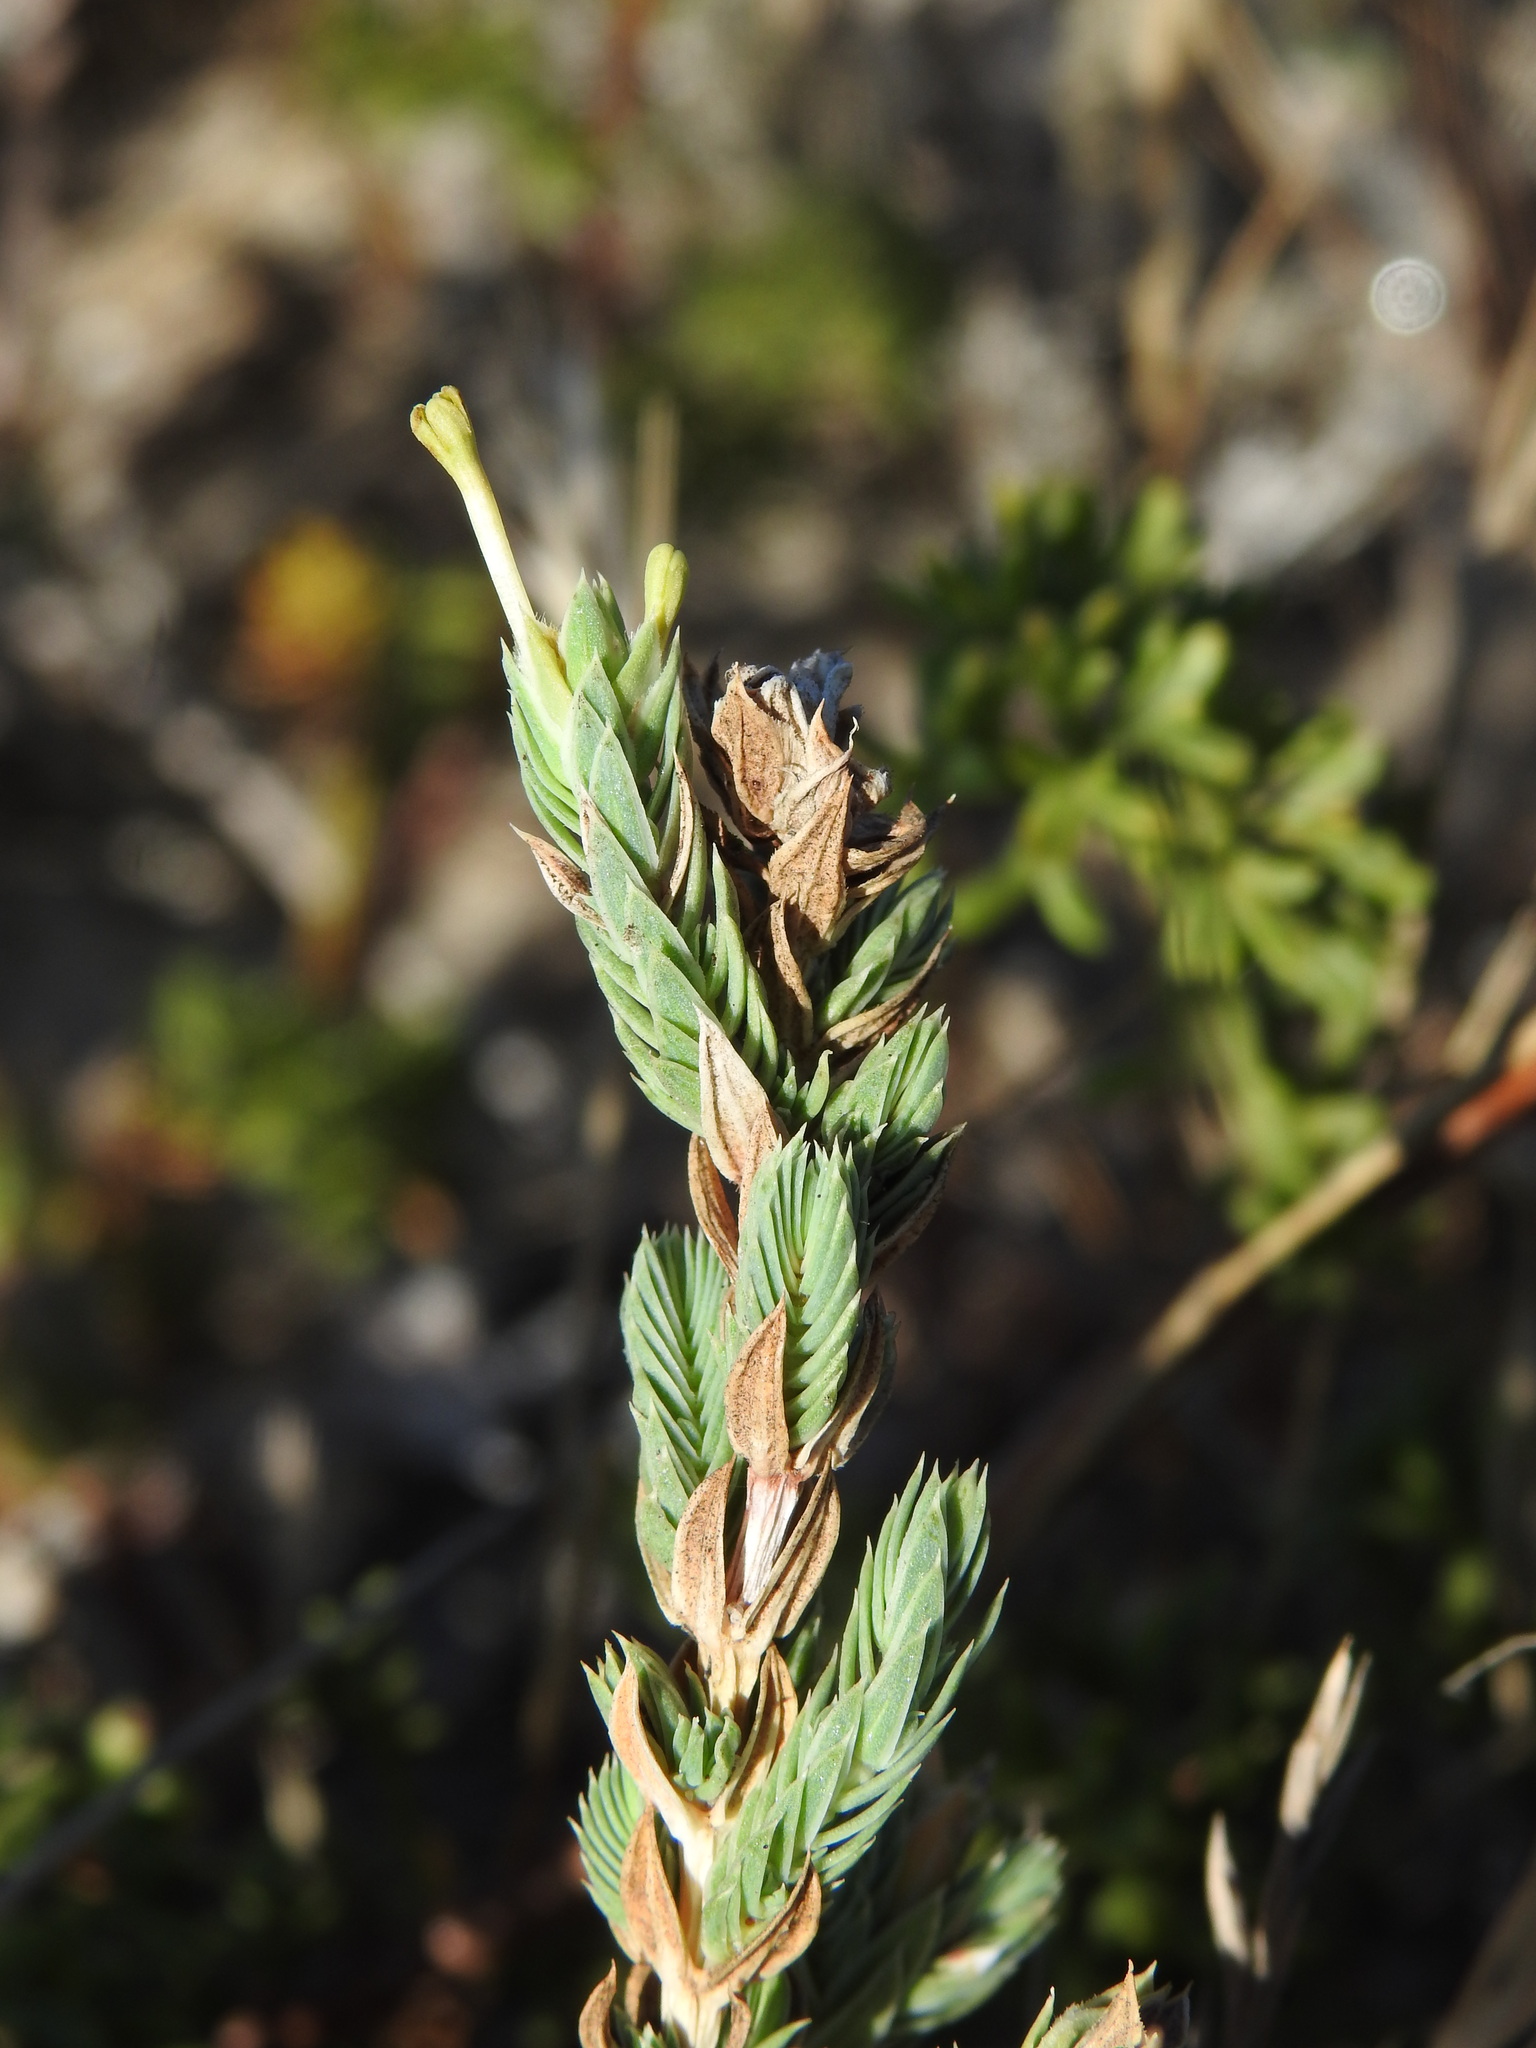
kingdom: Plantae
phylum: Tracheophyta
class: Magnoliopsida
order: Gentianales
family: Rubiaceae
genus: Crucianella
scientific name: Crucianella maritima
